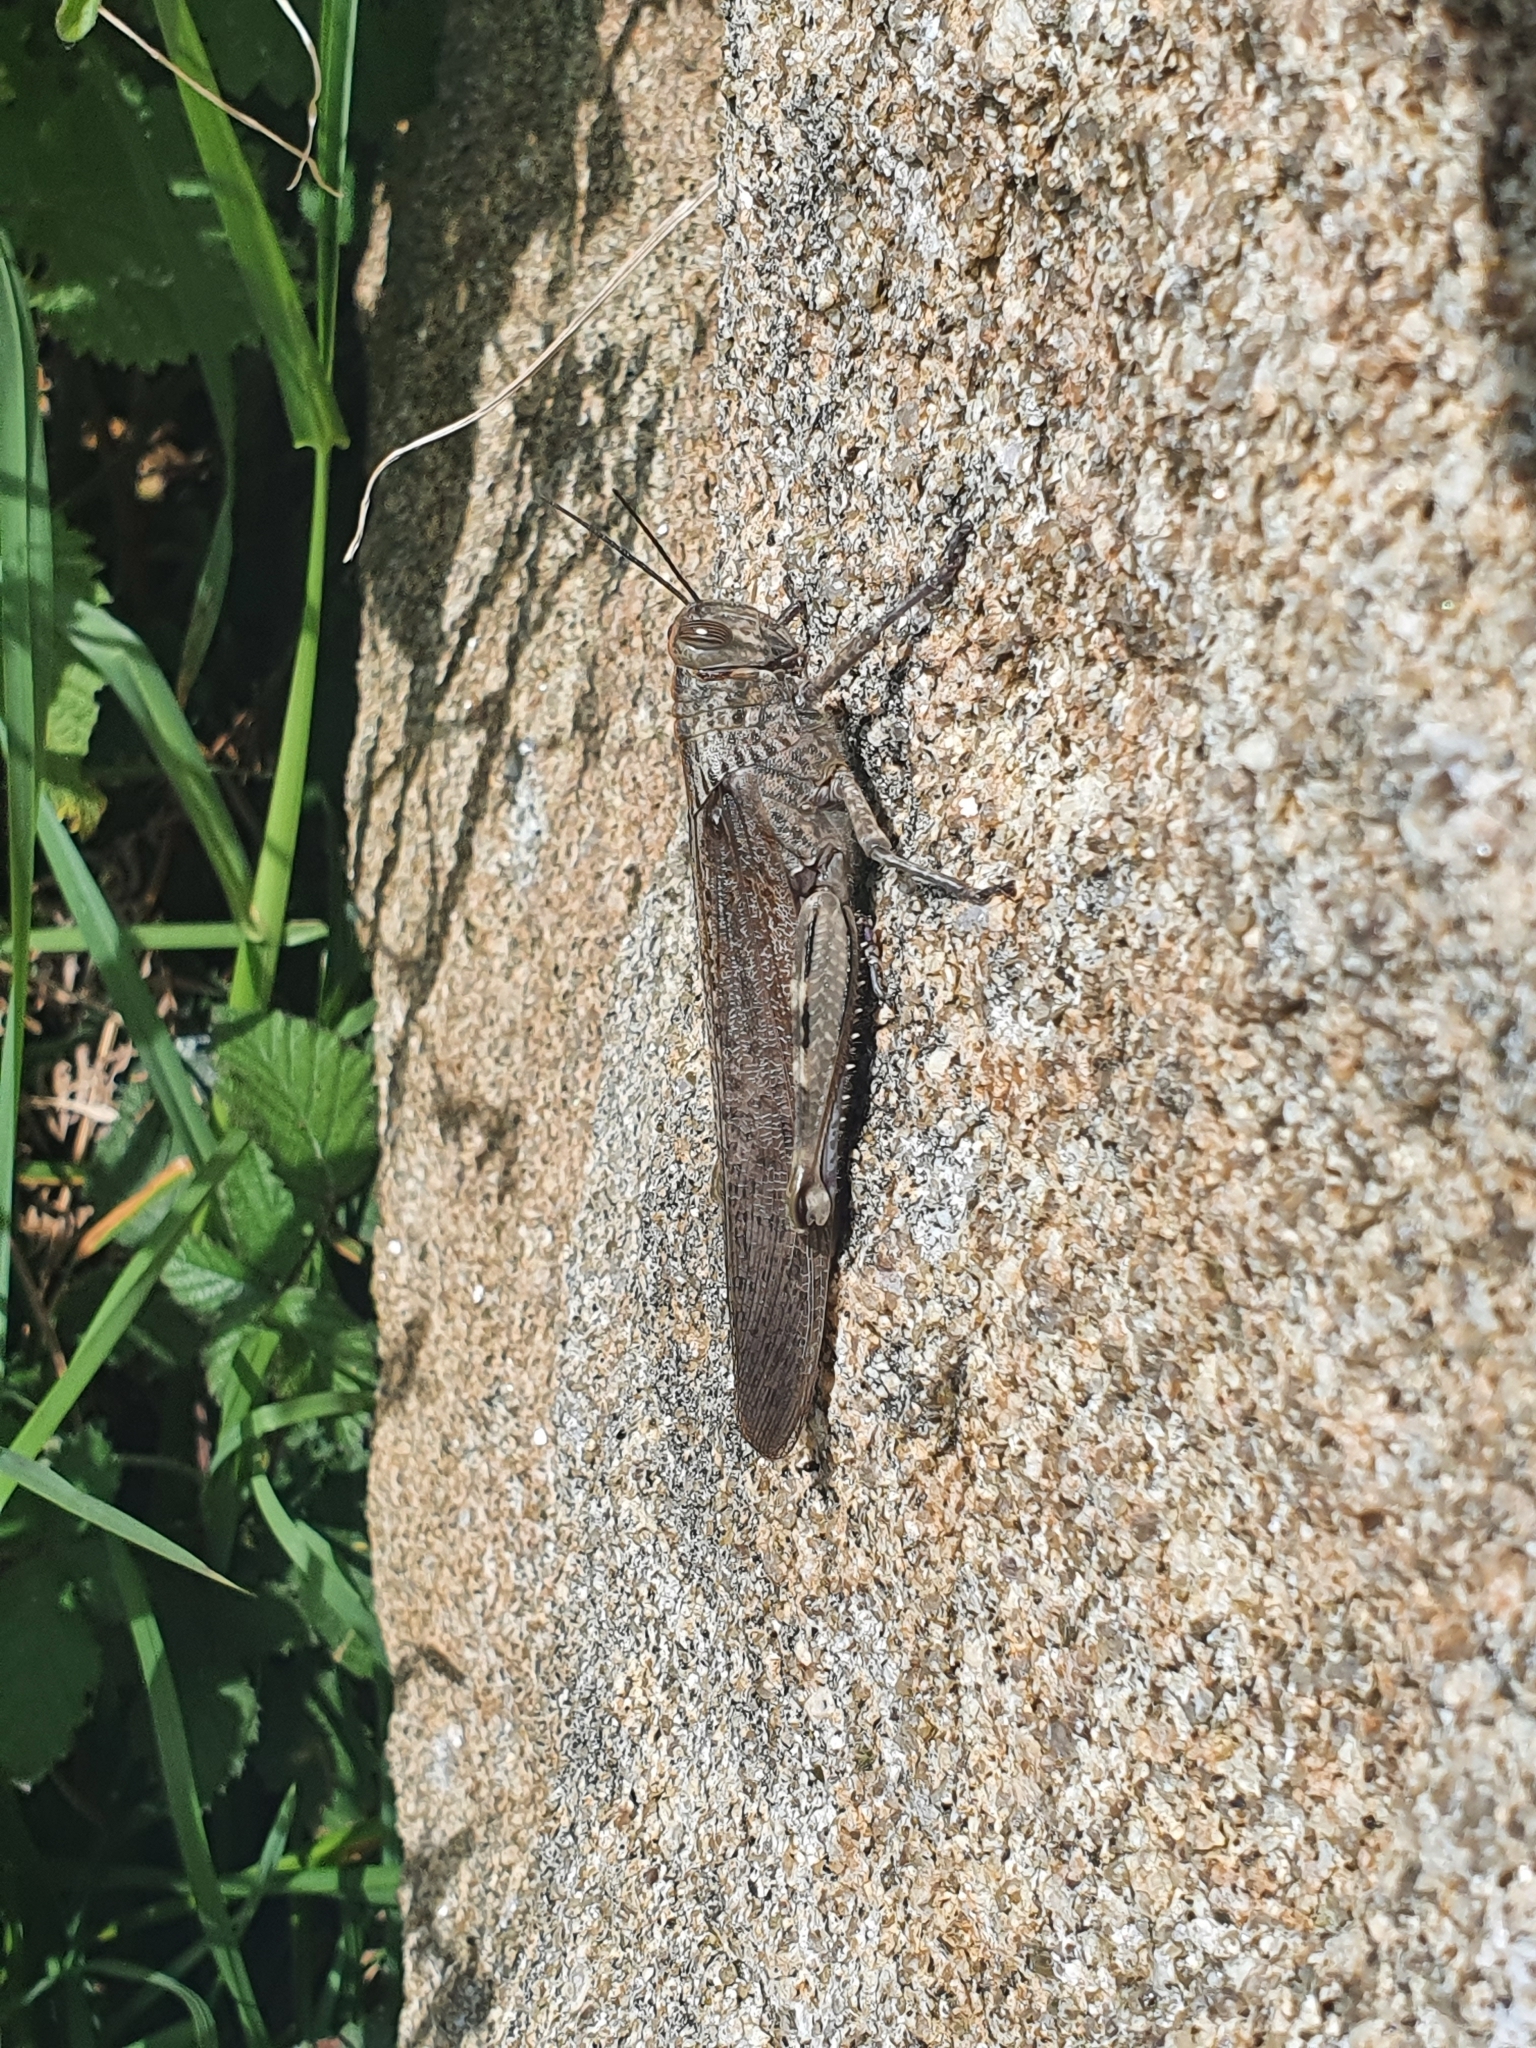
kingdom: Animalia
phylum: Arthropoda
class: Insecta
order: Orthoptera
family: Acrididae
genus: Anacridium
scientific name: Anacridium aegyptium
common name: Egyptian grasshopper
